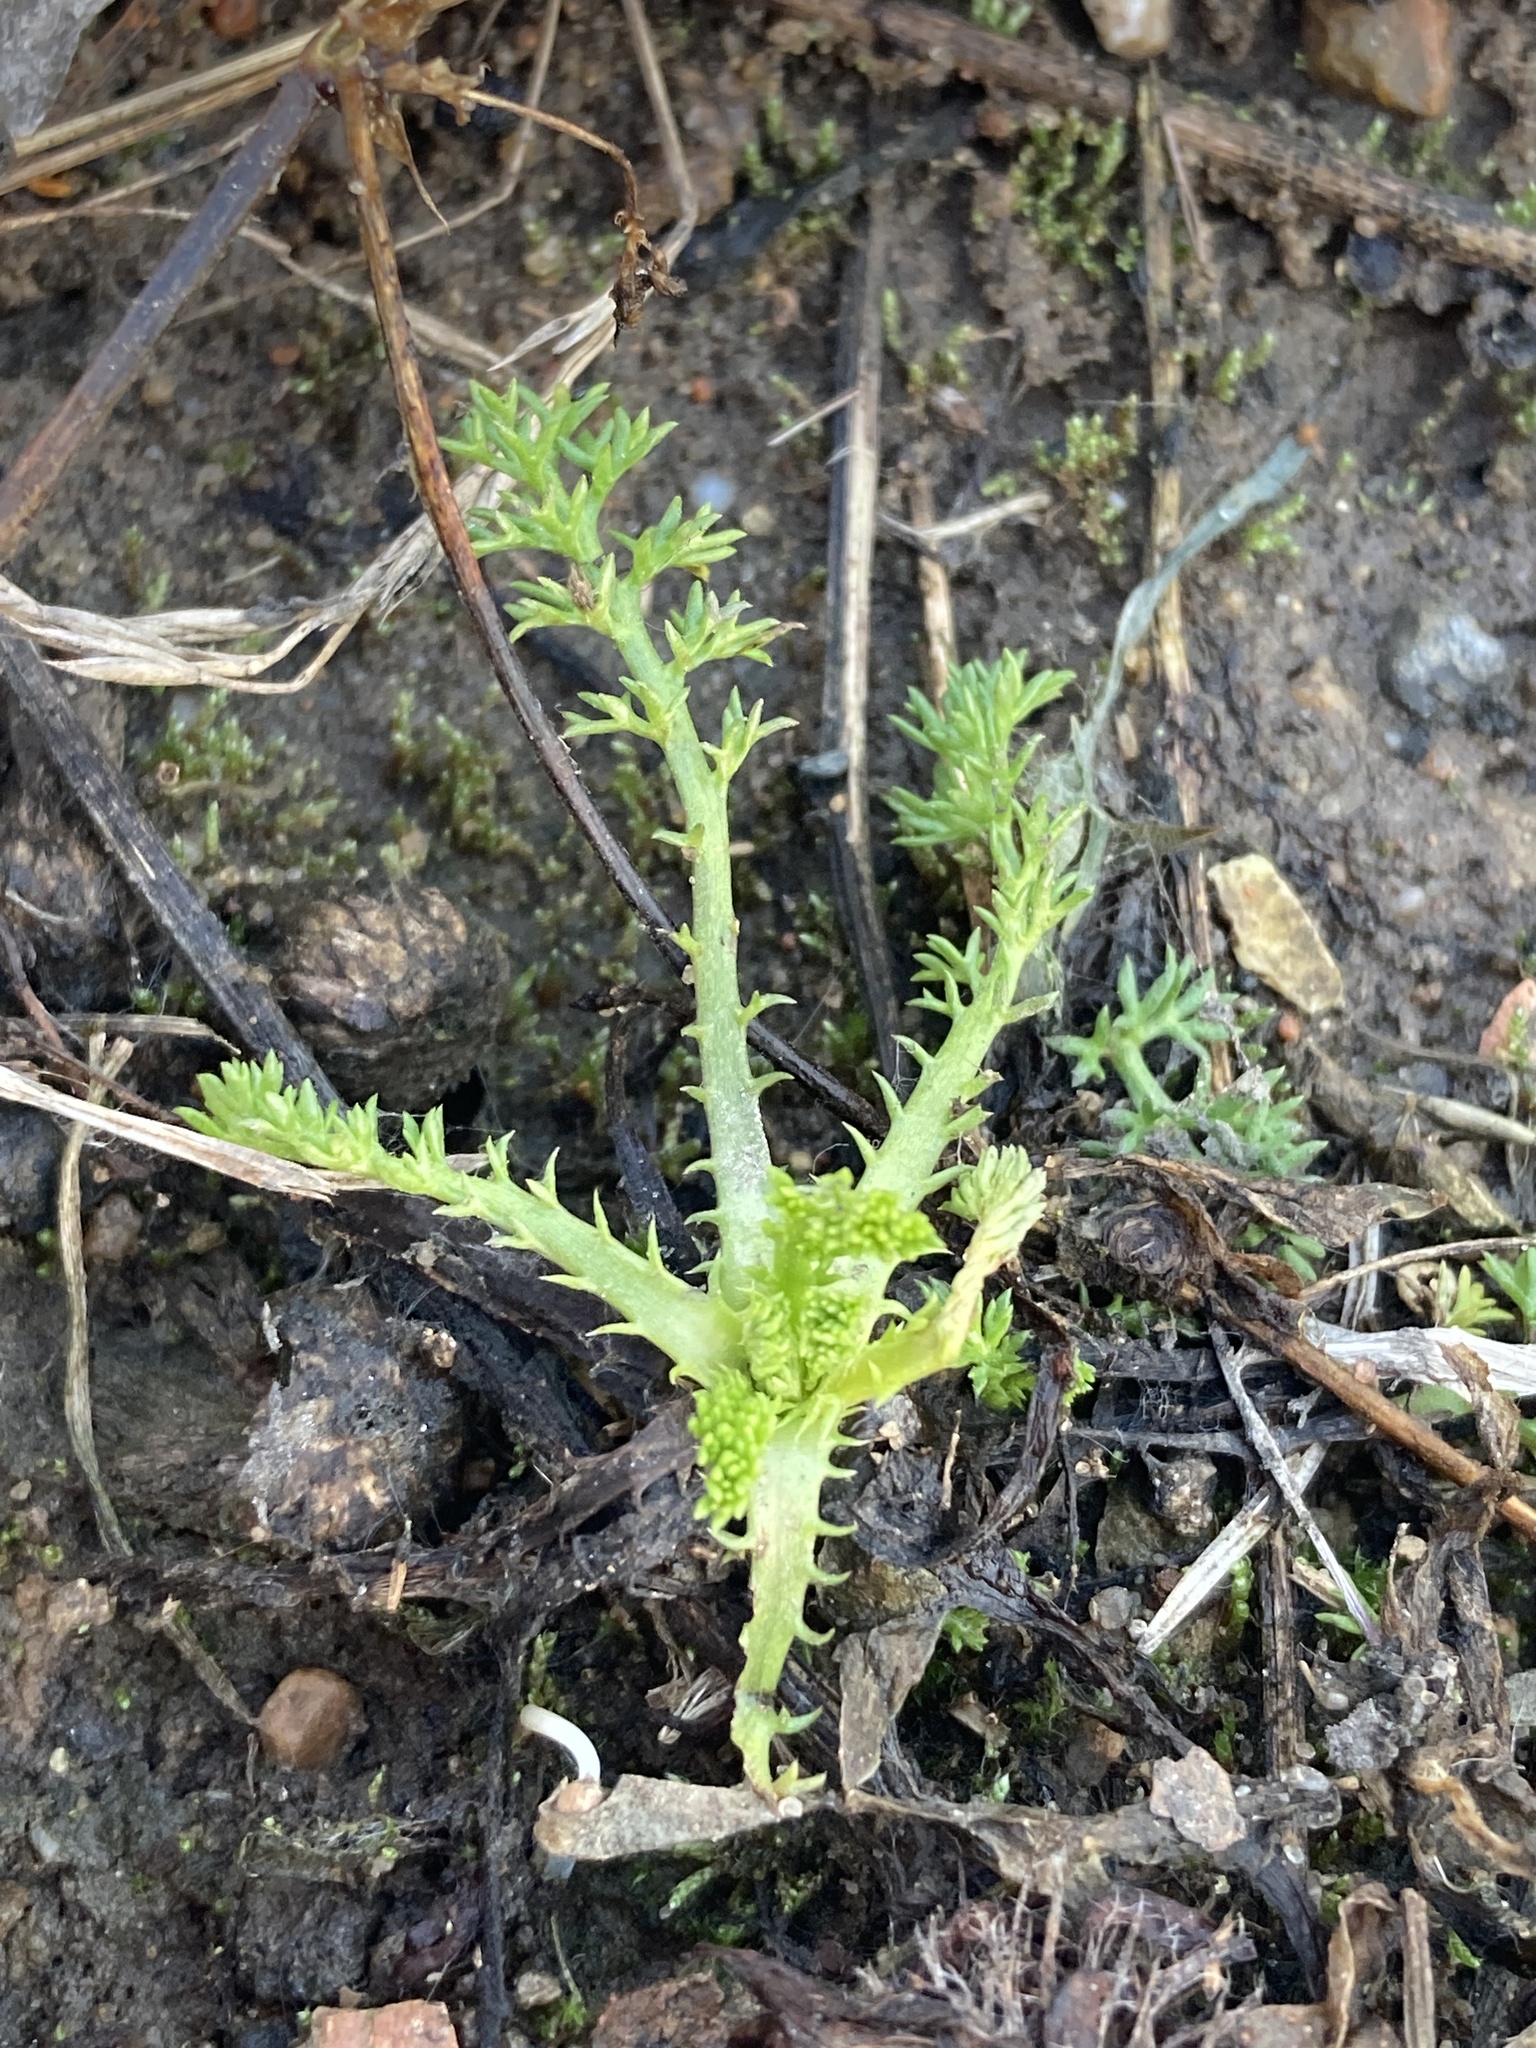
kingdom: Plantae
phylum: Tracheophyta
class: Magnoliopsida
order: Asterales
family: Asteraceae
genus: Tripleurospermum
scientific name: Tripleurospermum inodorum
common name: Scentless mayweed
